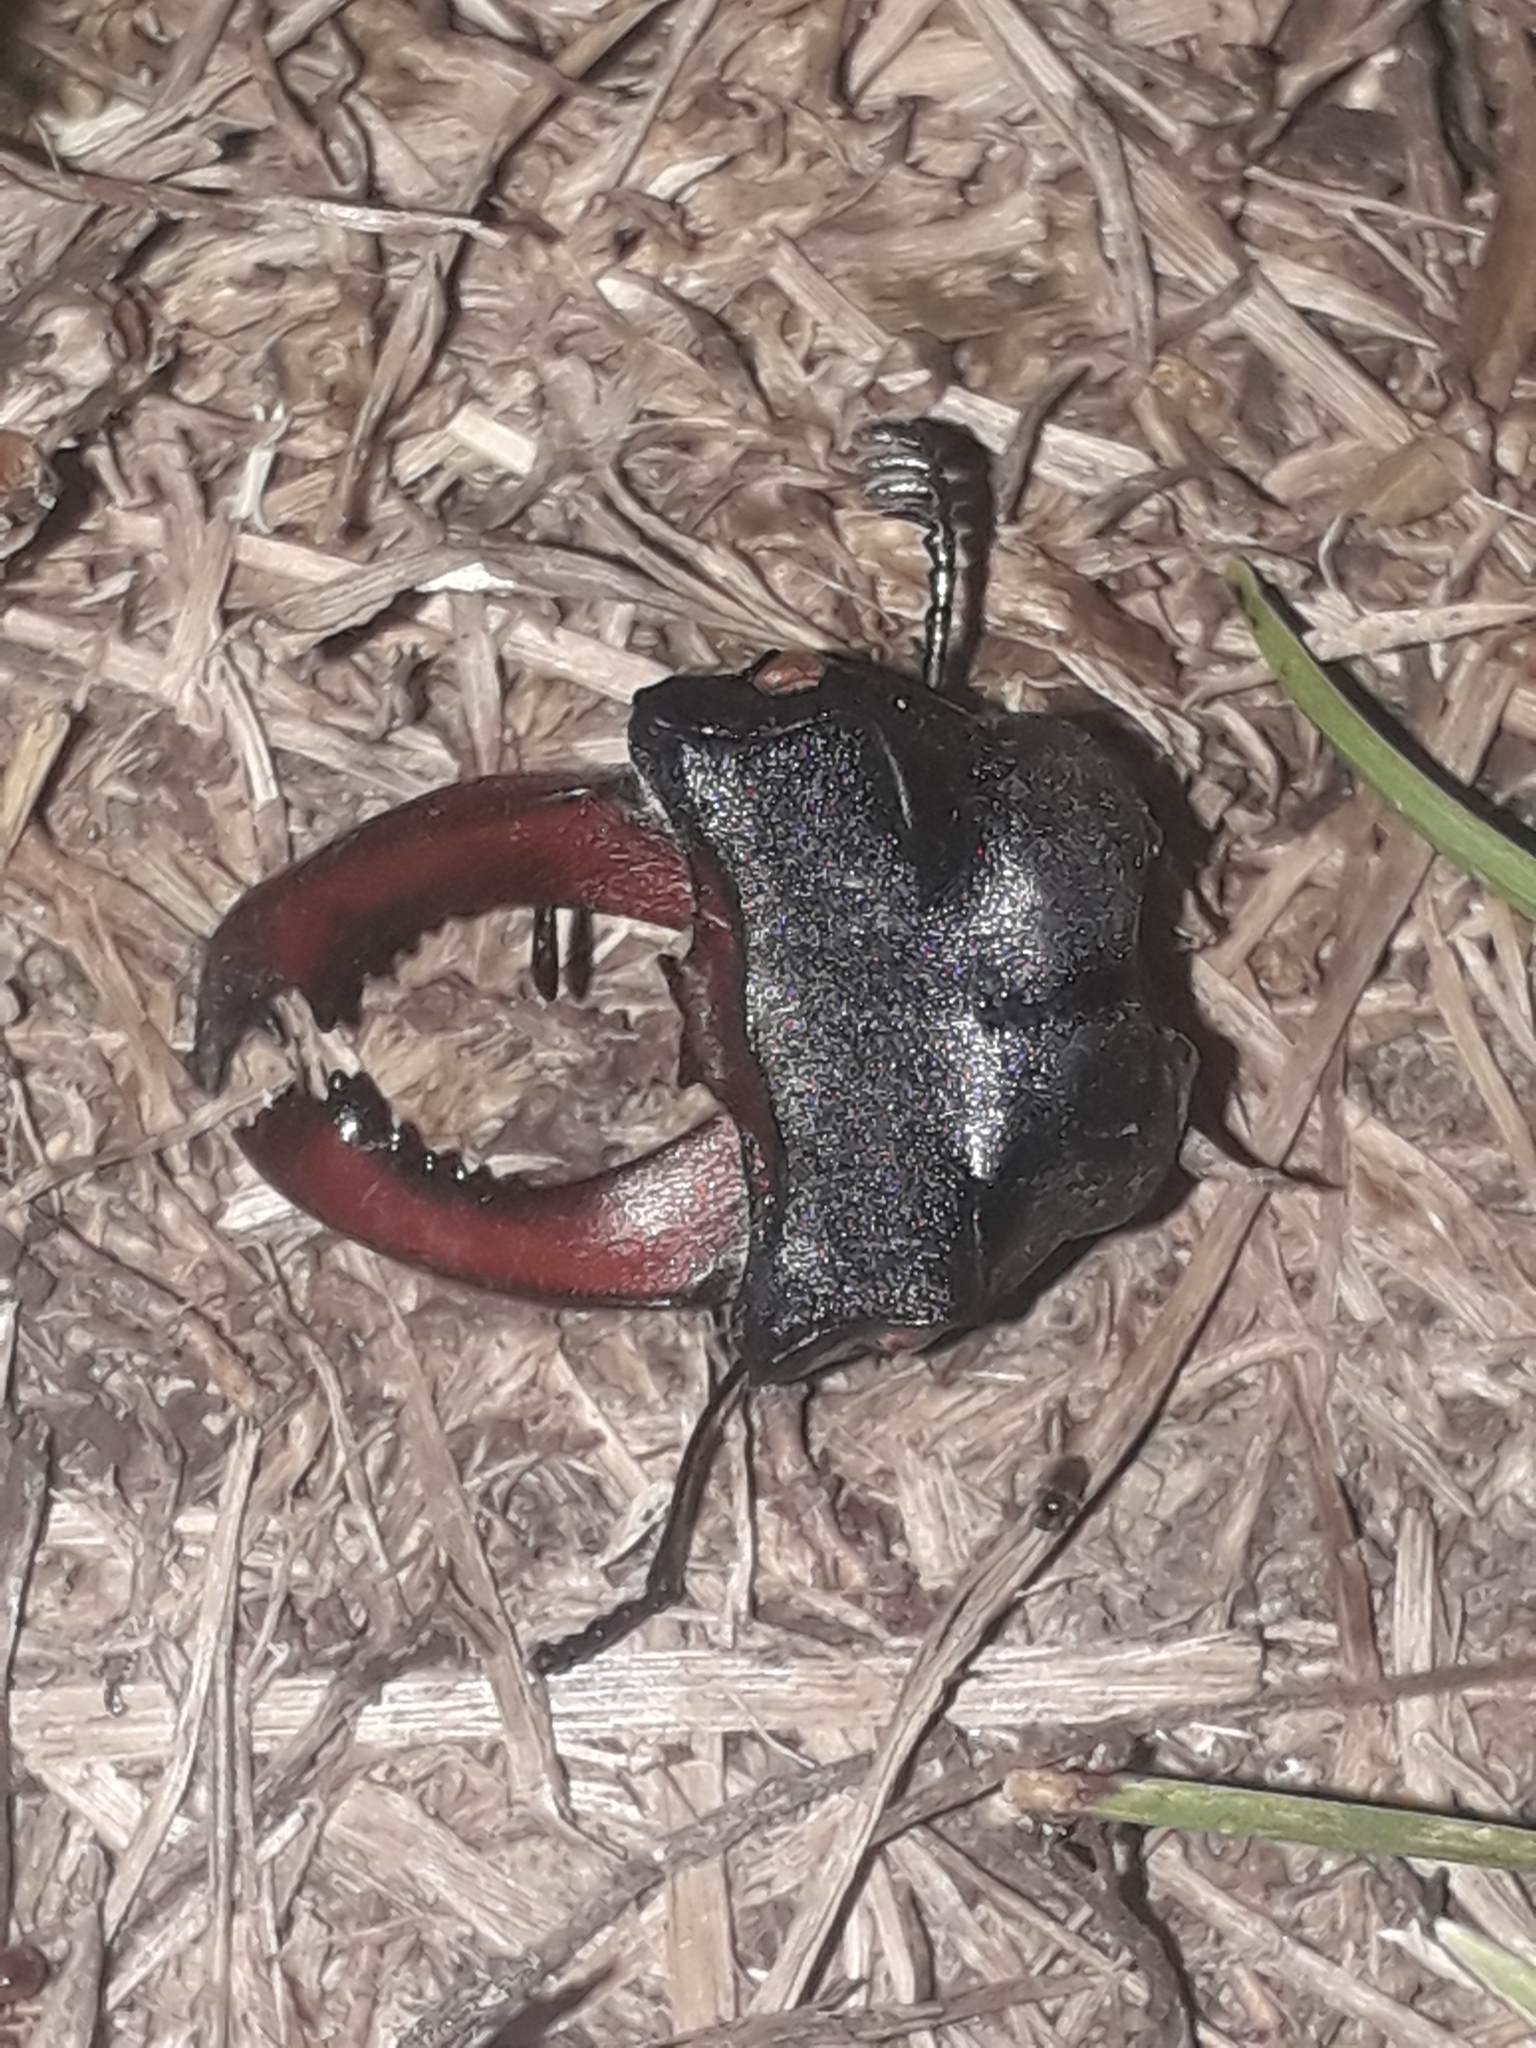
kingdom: Animalia
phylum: Arthropoda
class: Insecta
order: Coleoptera
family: Lucanidae
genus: Lucanus
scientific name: Lucanus cervus
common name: Stag beetle
